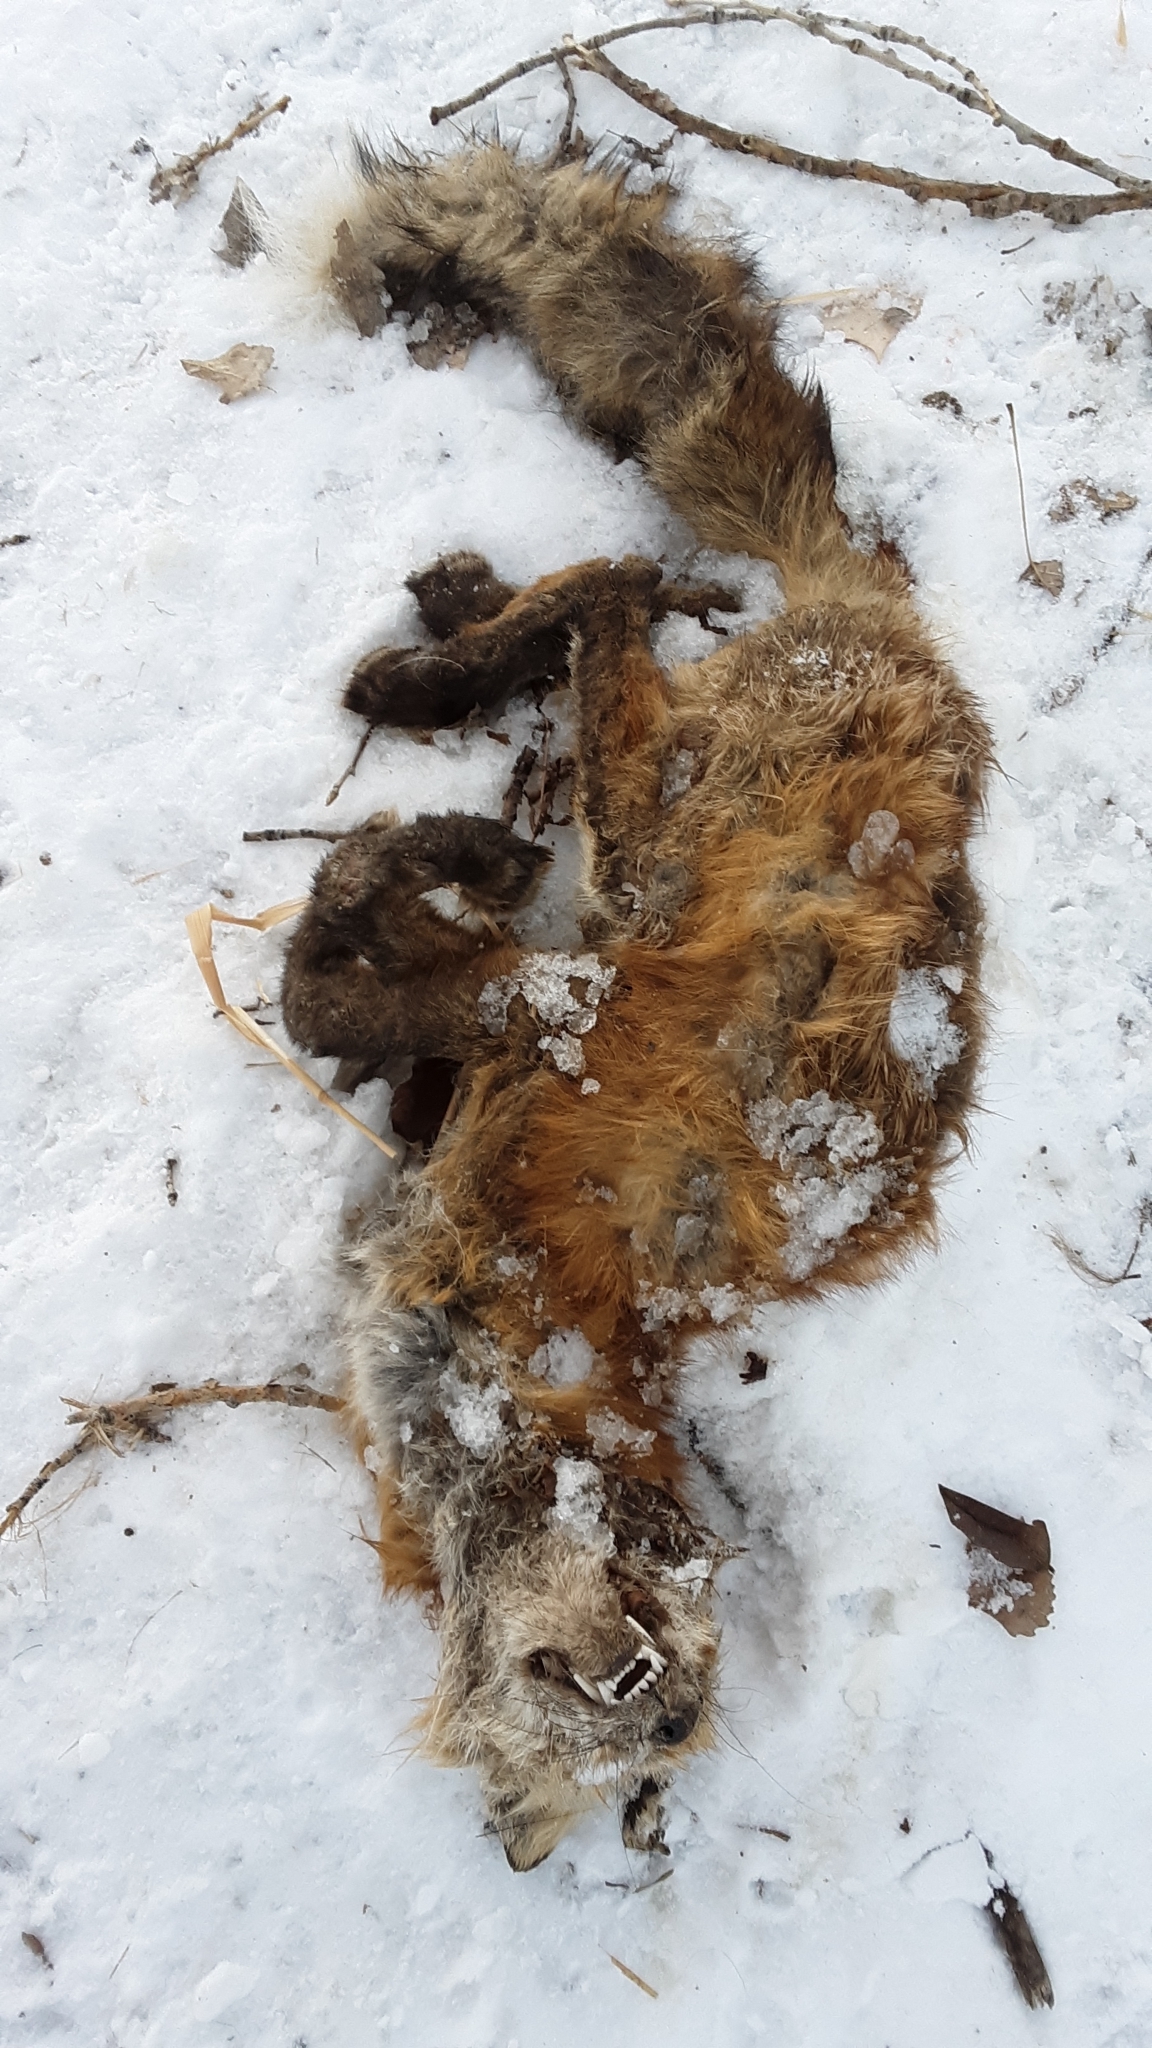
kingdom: Animalia
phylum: Chordata
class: Mammalia
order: Carnivora
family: Canidae
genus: Vulpes
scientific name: Vulpes vulpes
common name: Red fox
